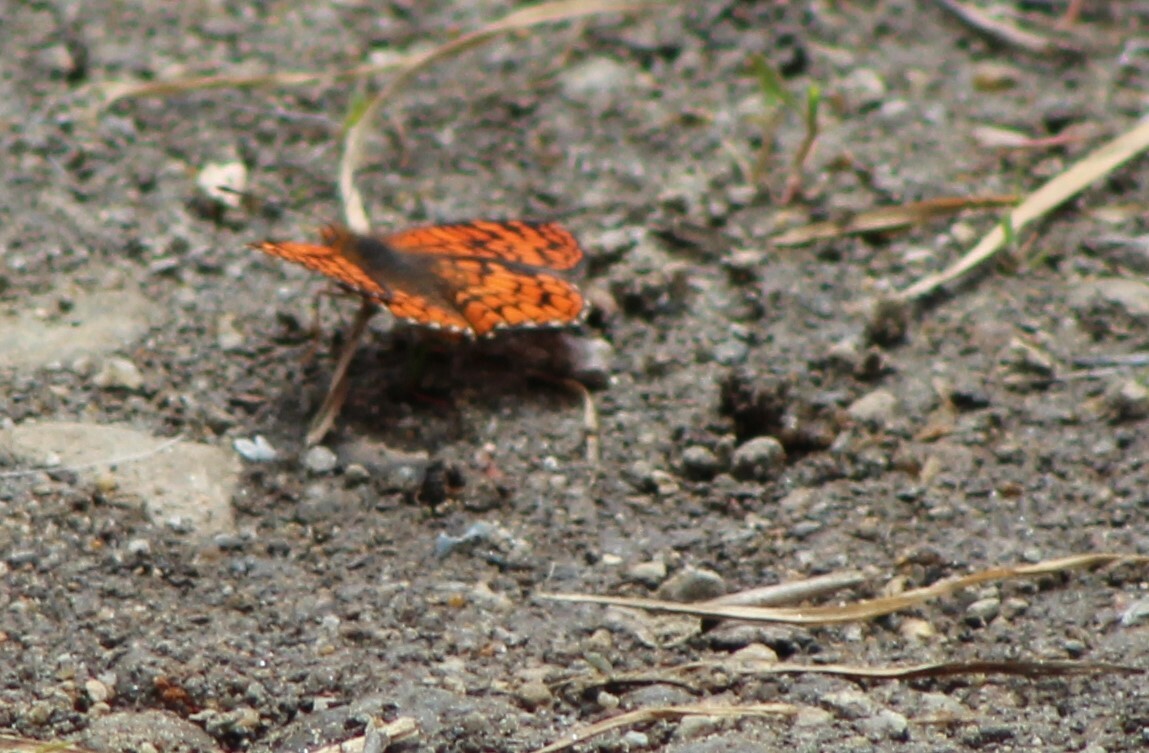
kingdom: Animalia
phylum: Arthropoda
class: Insecta
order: Lepidoptera
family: Nymphalidae
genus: Chlosyne
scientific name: Chlosyne palla
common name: Northern checkerspot
